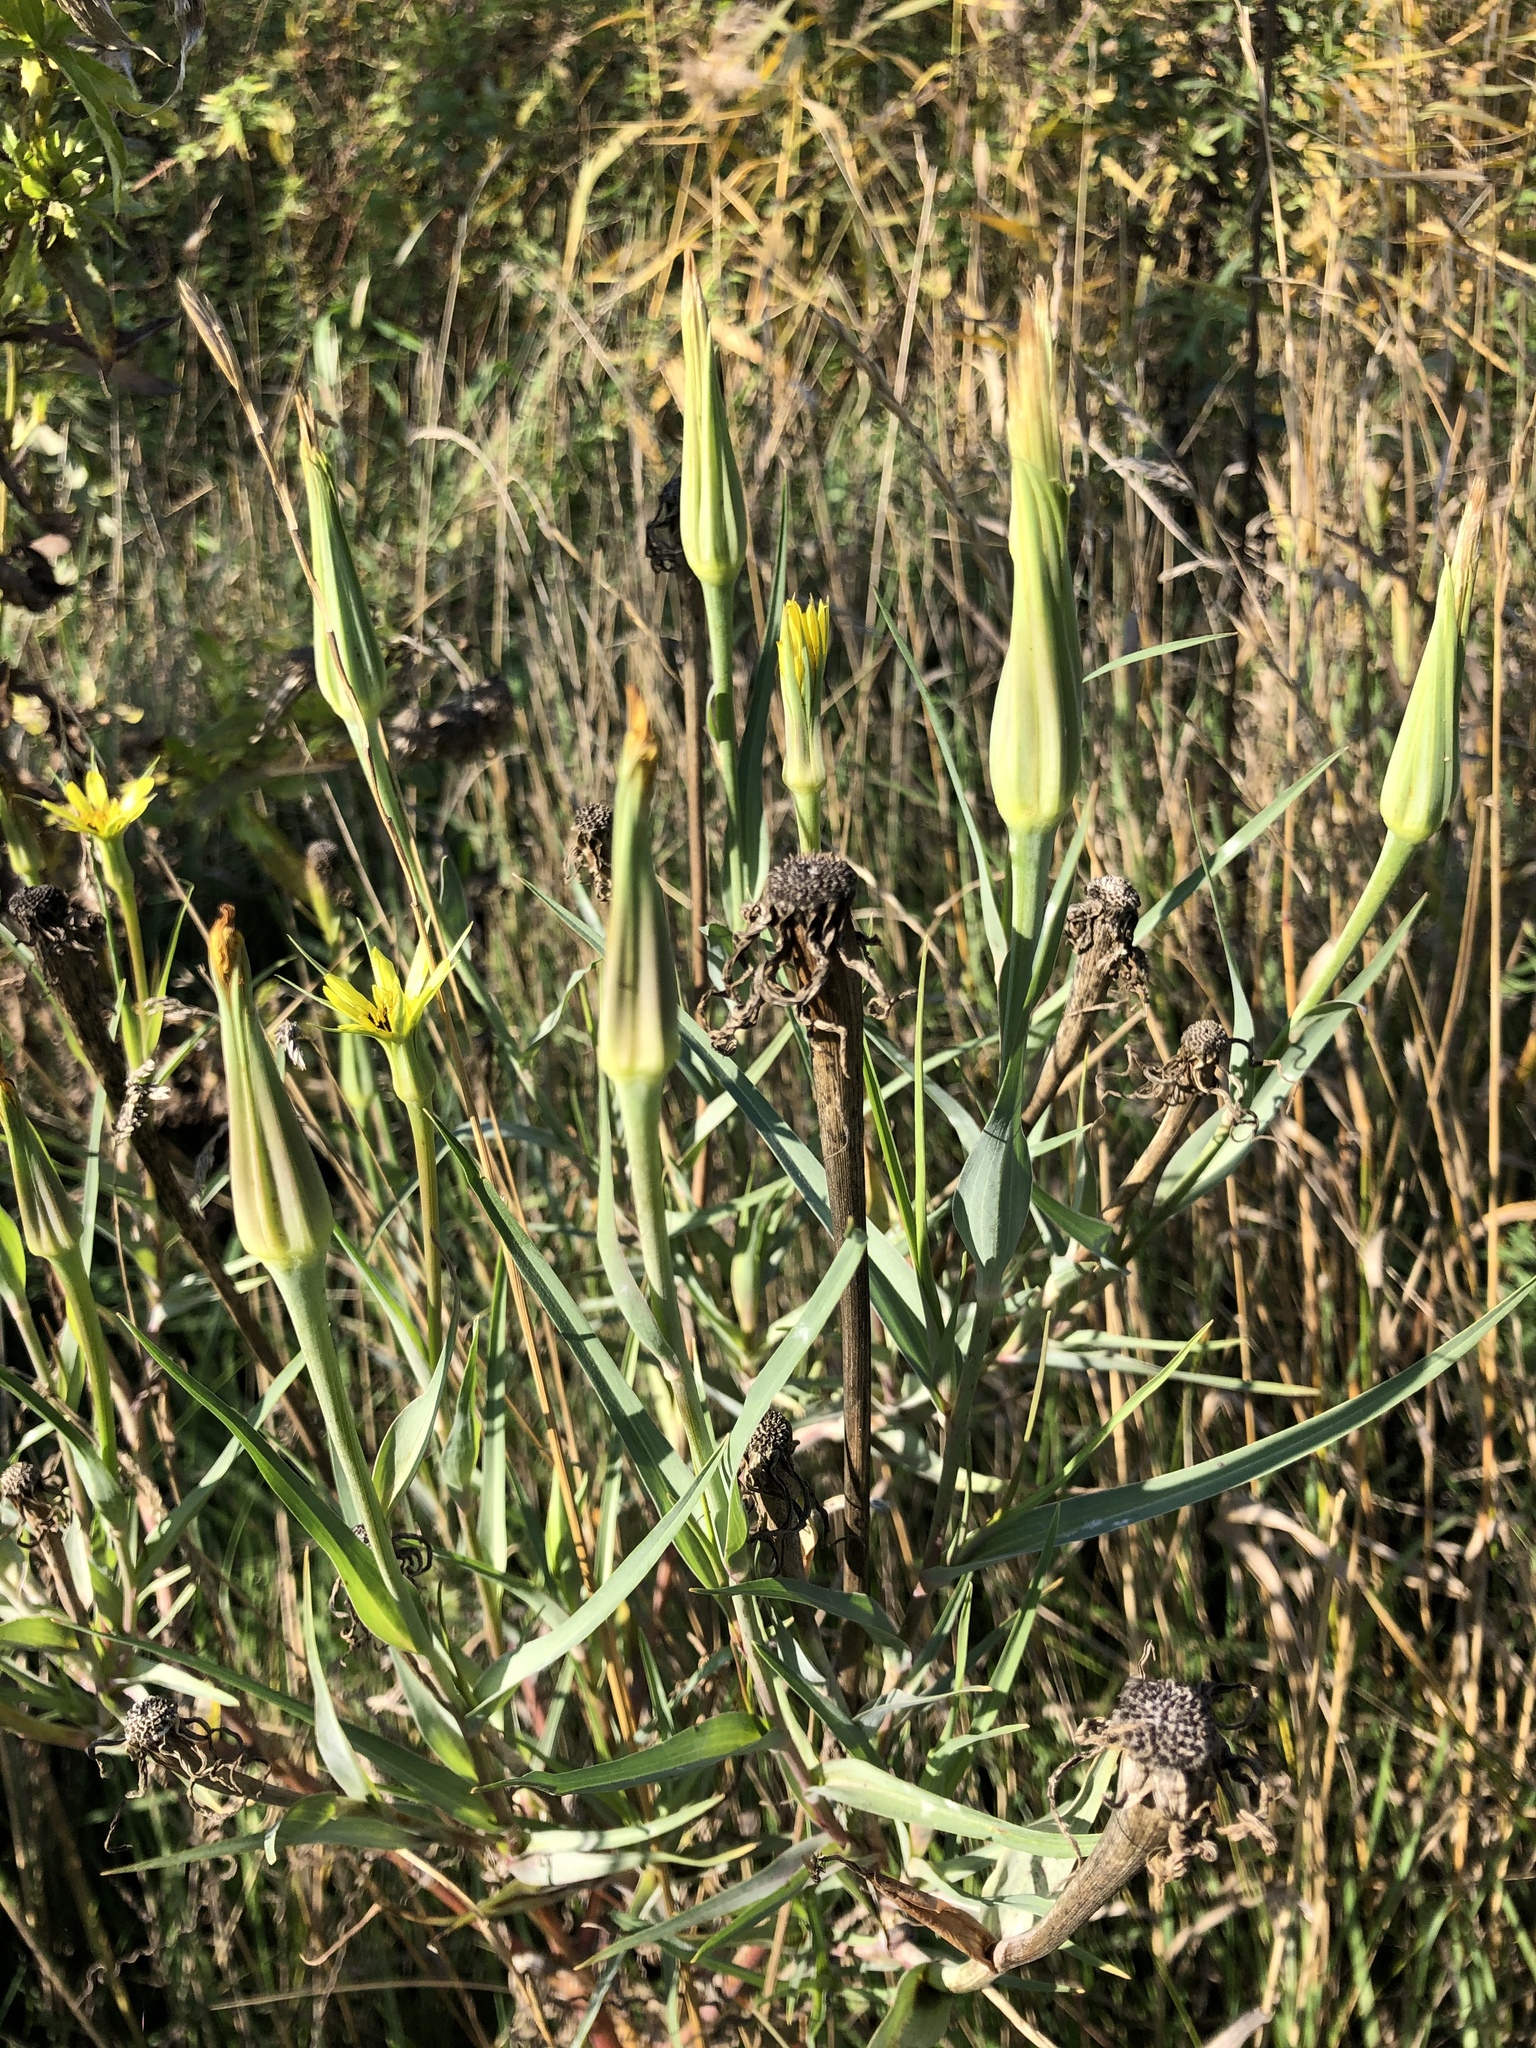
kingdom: Plantae
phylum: Tracheophyta
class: Magnoliopsida
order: Asterales
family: Asteraceae
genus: Tragopogon
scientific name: Tragopogon dubius
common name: Yellow salsify
